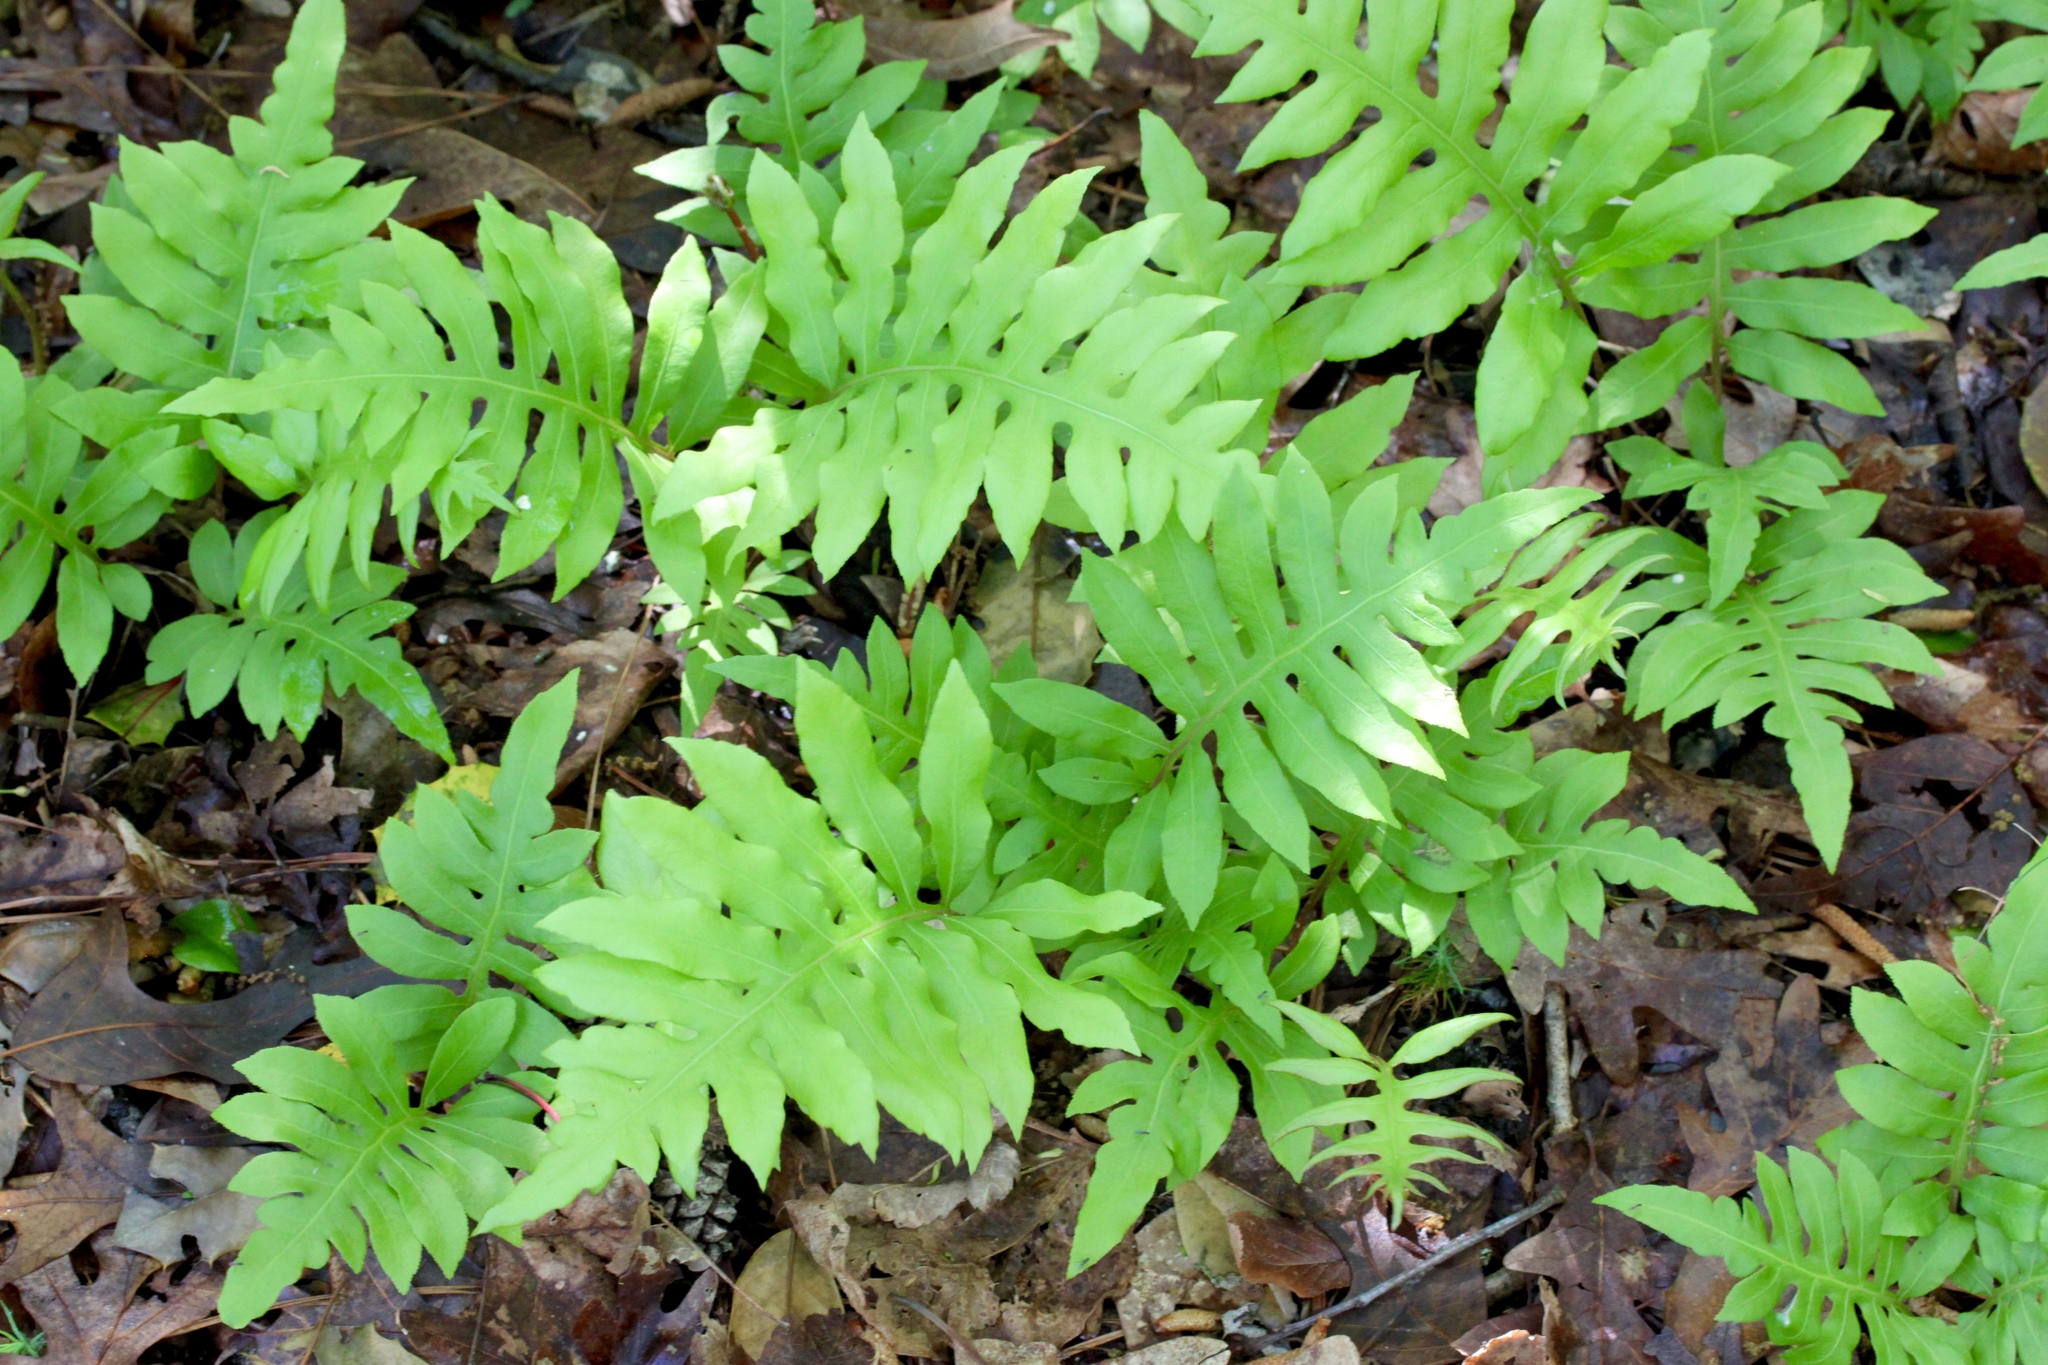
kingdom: Plantae
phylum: Tracheophyta
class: Polypodiopsida
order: Polypodiales
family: Blechnaceae
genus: Lorinseria
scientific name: Lorinseria areolata
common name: Dwarf chain fern
